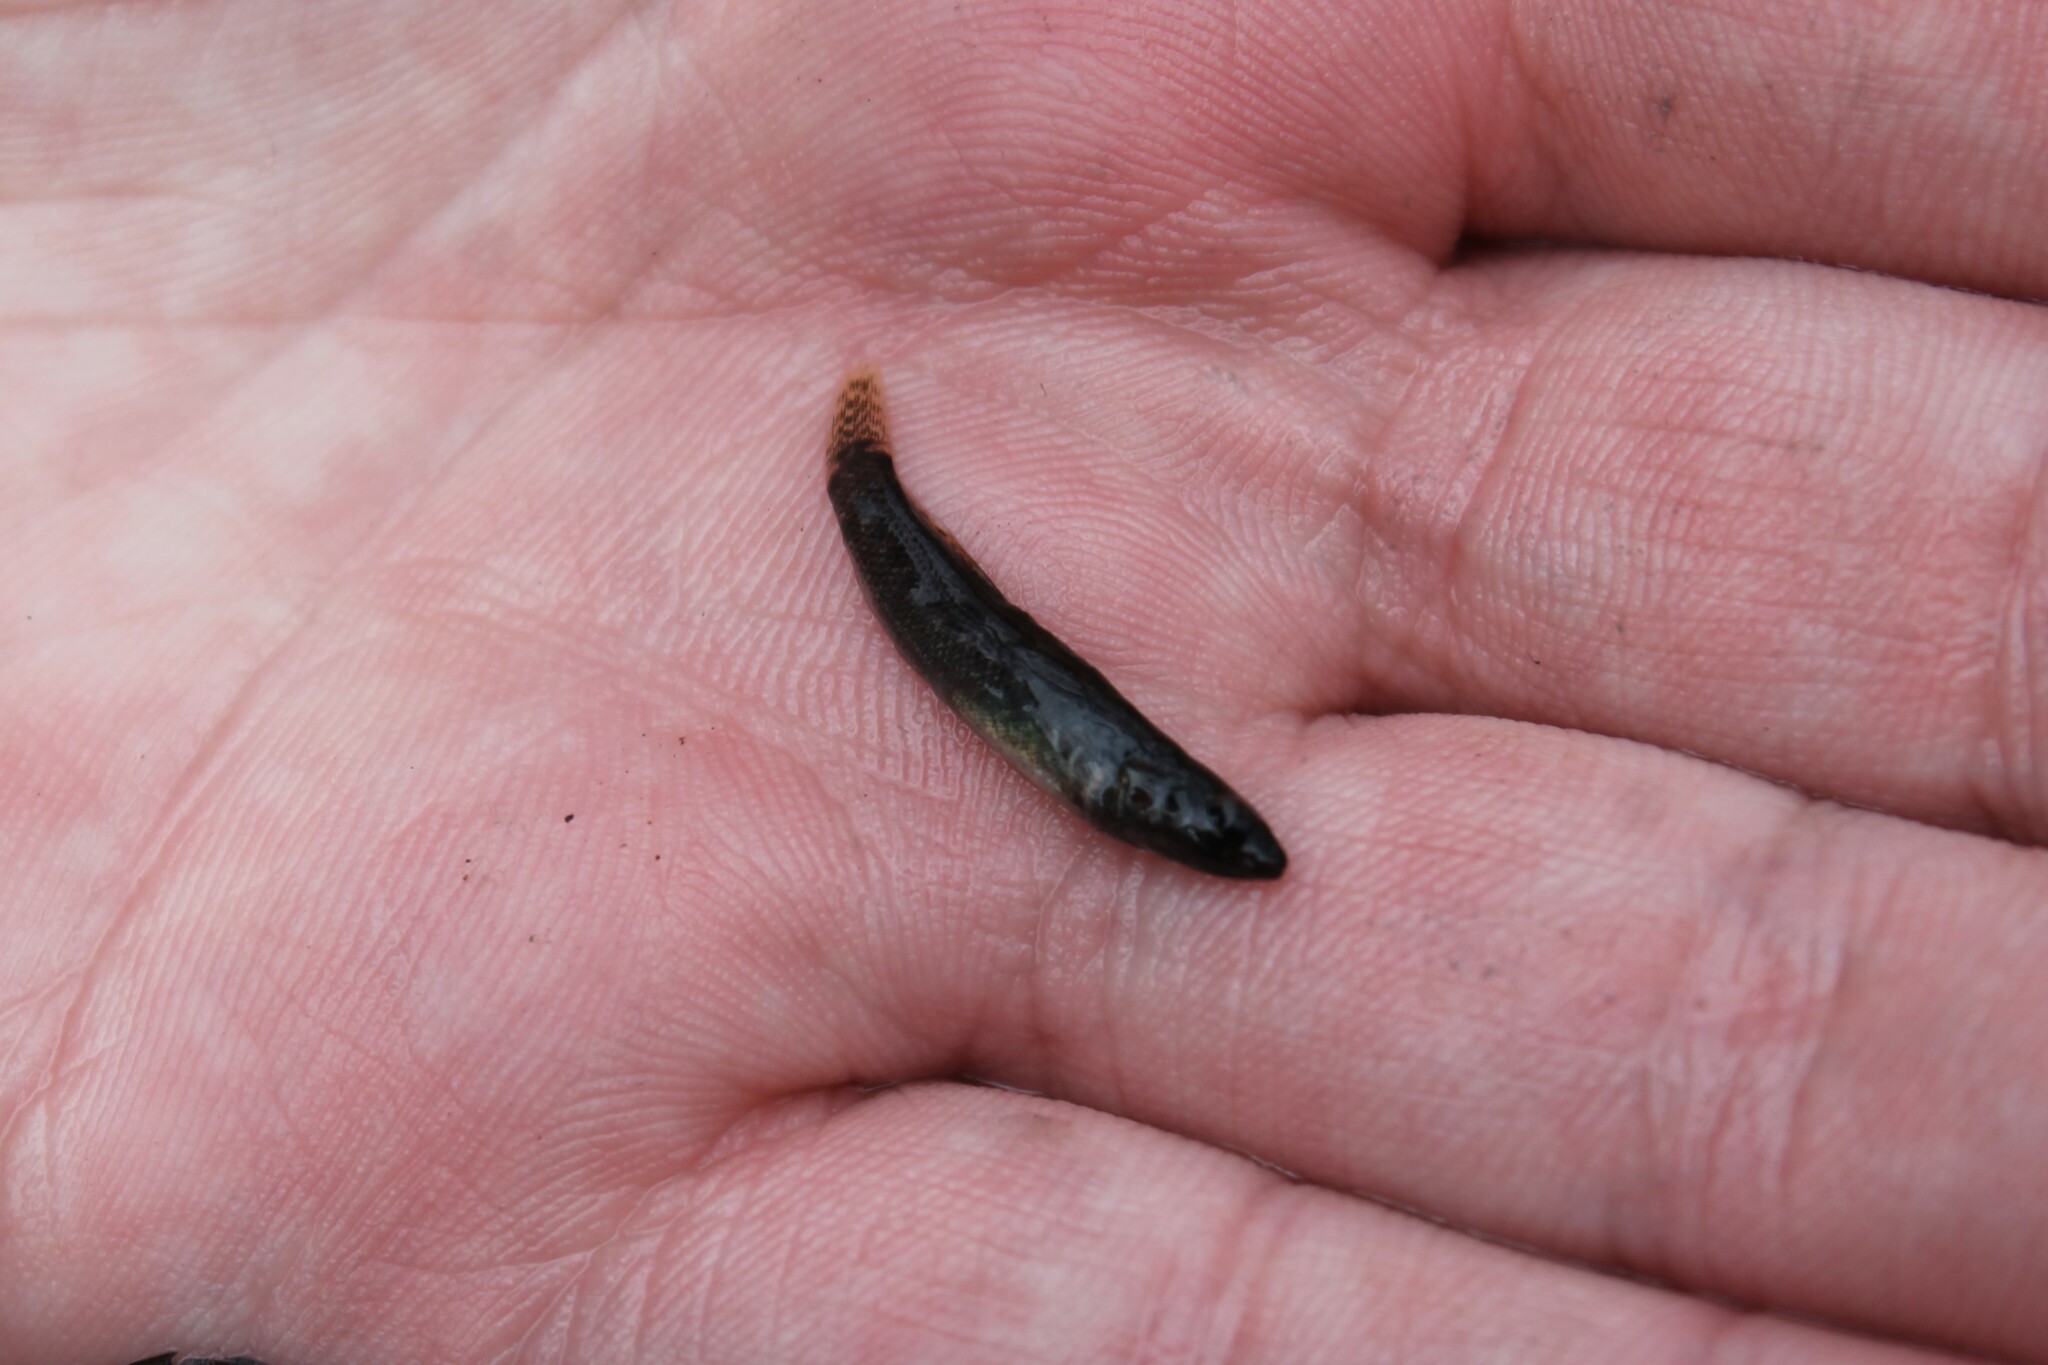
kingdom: Animalia
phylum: Chordata
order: Perciformes
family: Percidae
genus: Etheostoma
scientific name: Etheostoma flabellare
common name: Fantail darter
